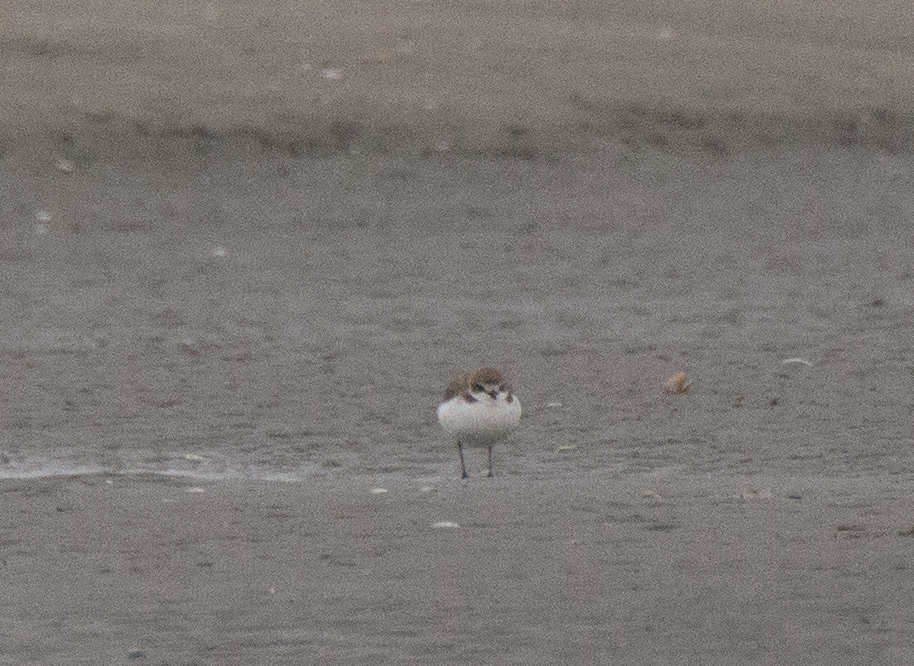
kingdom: Animalia
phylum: Chordata
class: Aves
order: Charadriiformes
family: Charadriidae
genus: Charadrius
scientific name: Charadrius alexandrinus
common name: Kentish plover
